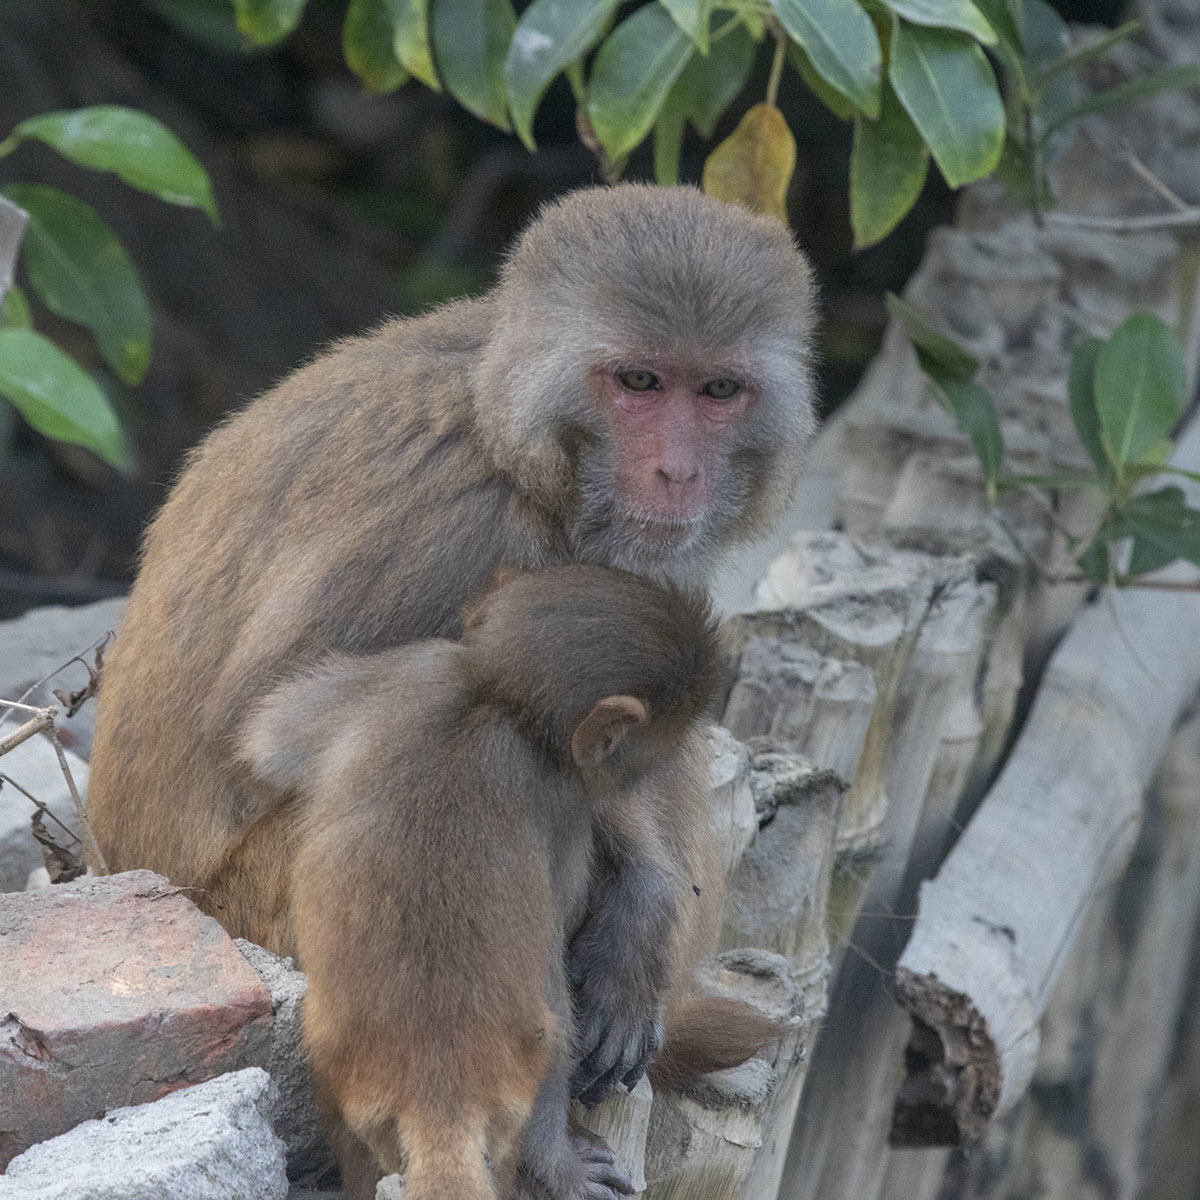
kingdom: Animalia
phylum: Chordata
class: Mammalia
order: Primates
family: Cercopithecidae
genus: Macaca
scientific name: Macaca mulatta
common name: Rhesus monkey
